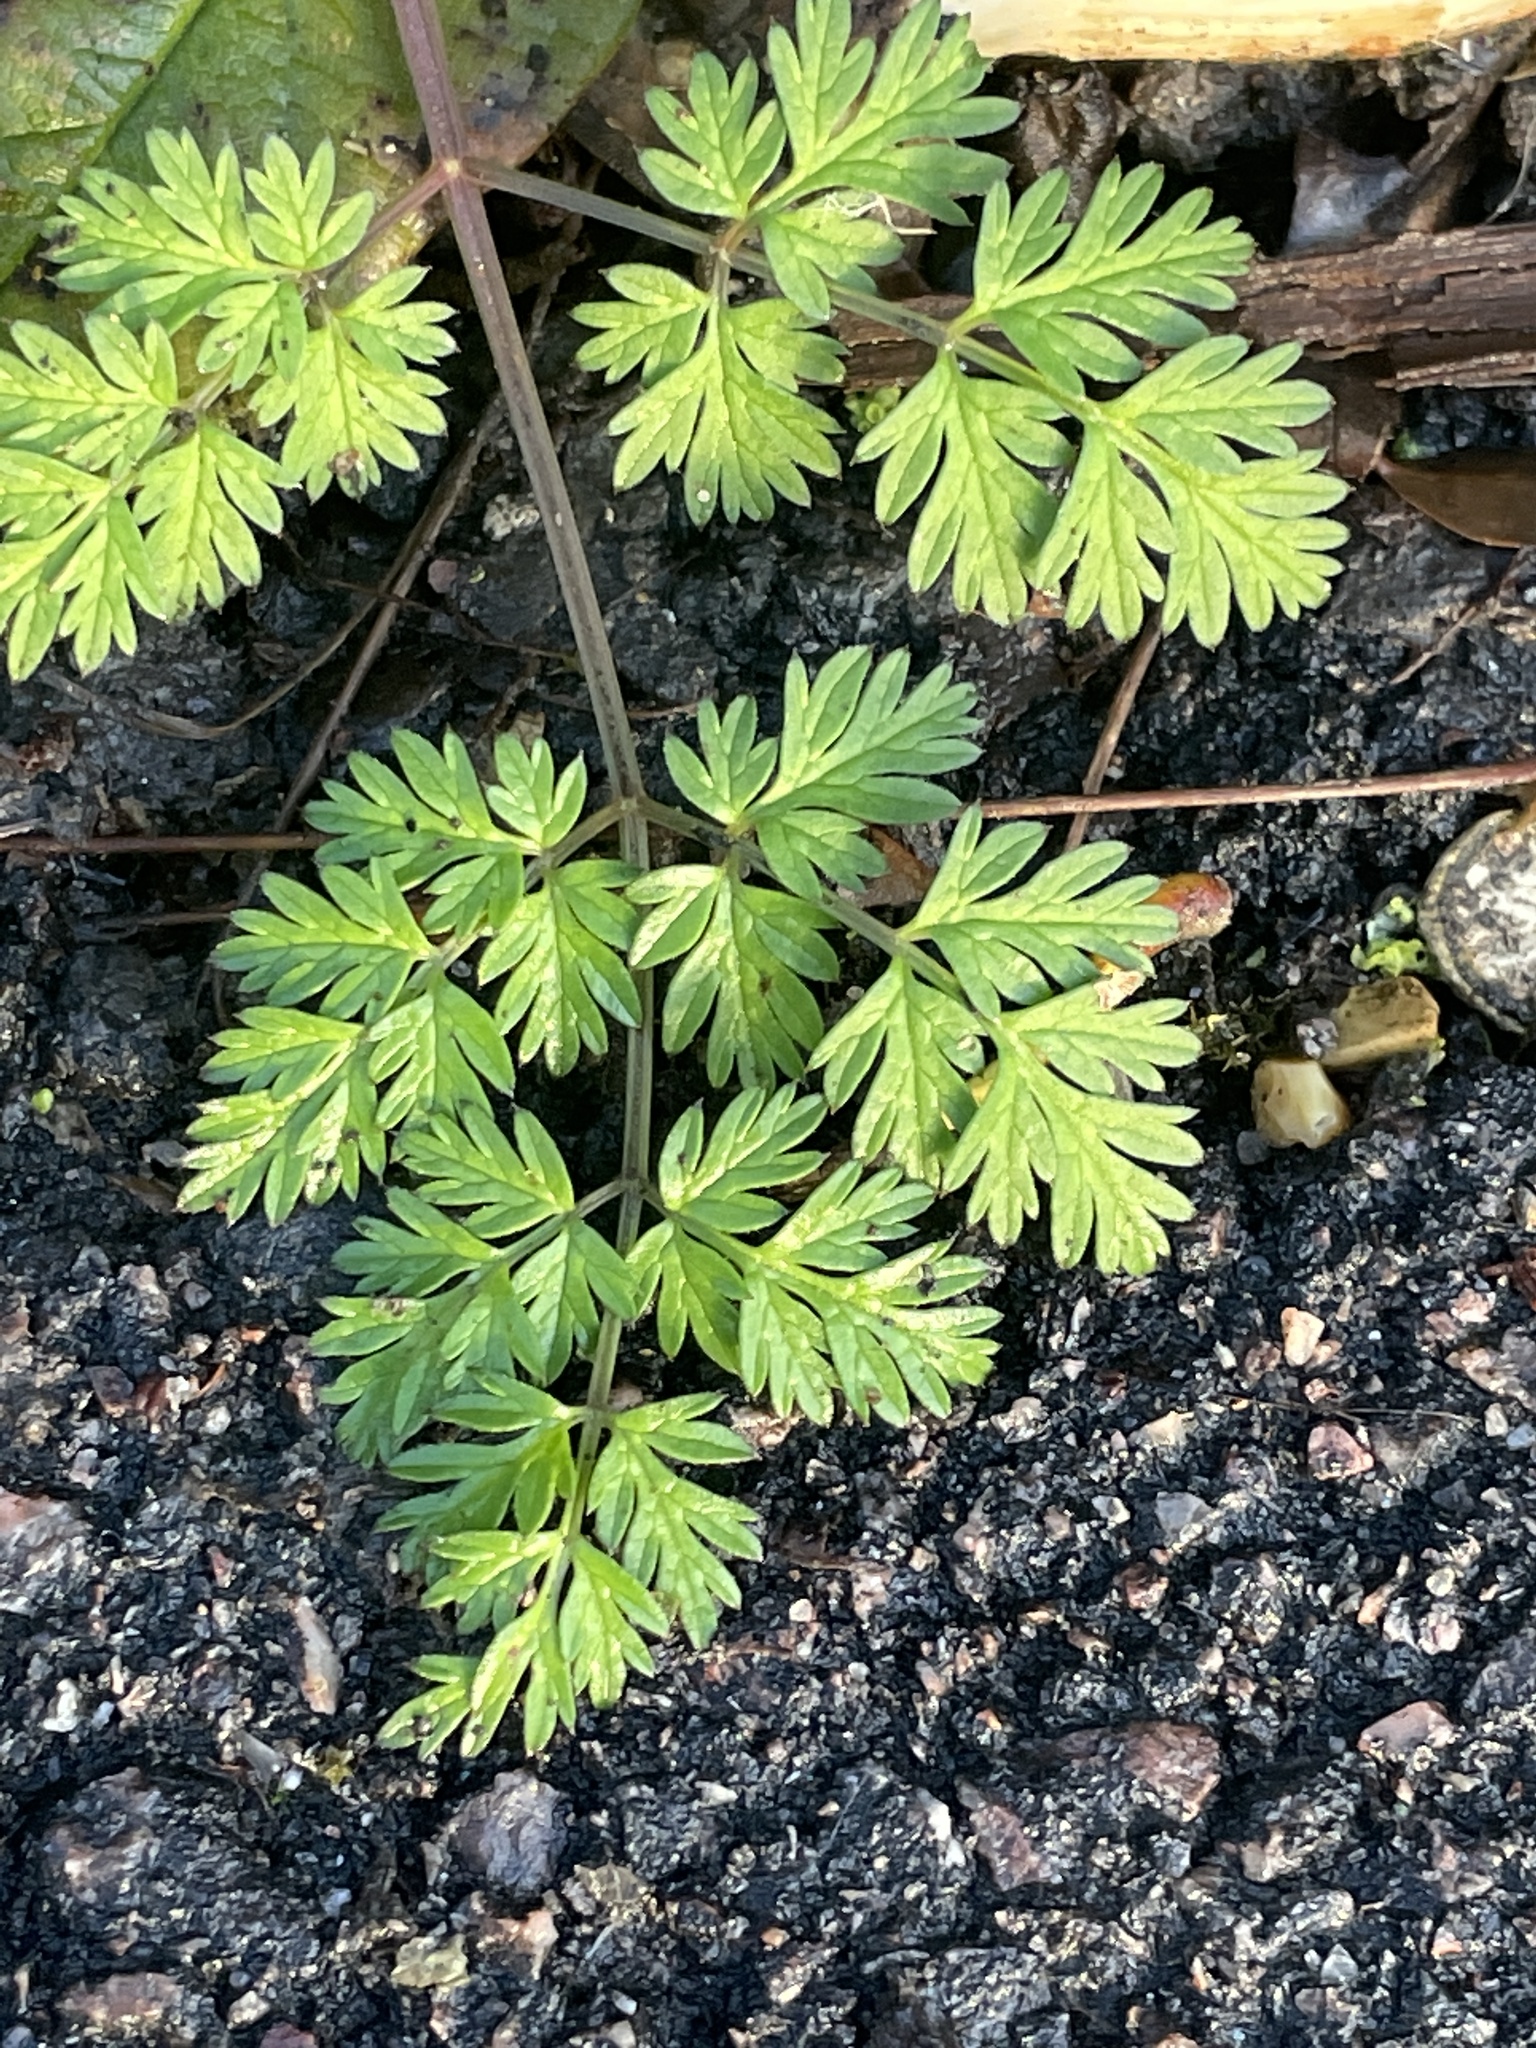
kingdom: Plantae
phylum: Tracheophyta
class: Magnoliopsida
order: Apiales
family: Apiaceae
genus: Anthriscus
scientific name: Anthriscus sylvestris
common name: Cow parsley
